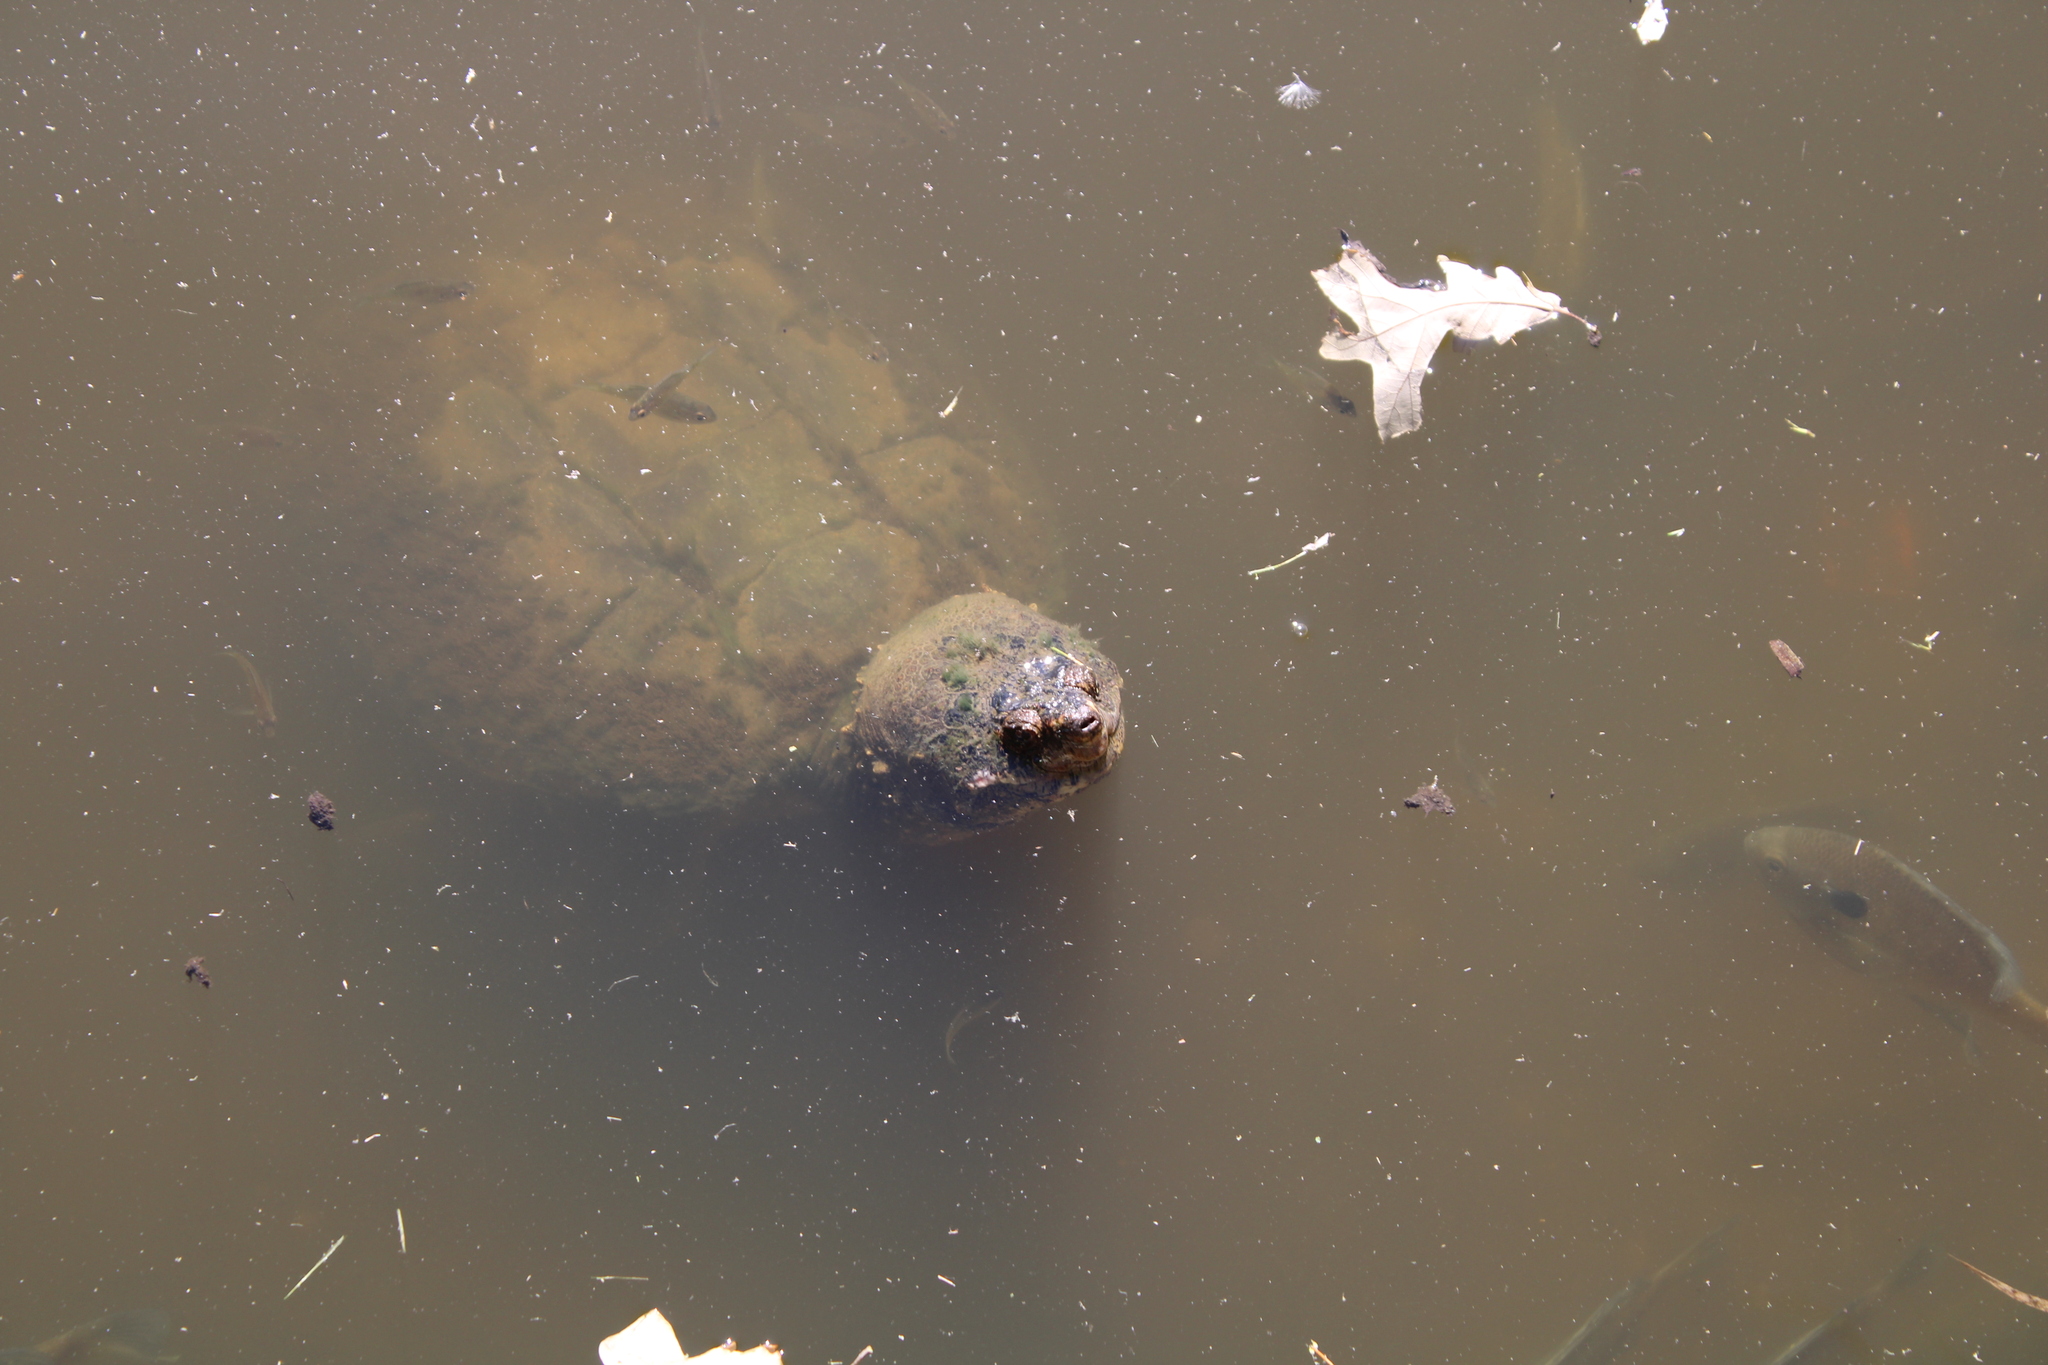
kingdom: Animalia
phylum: Chordata
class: Testudines
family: Chelydridae
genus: Chelydra
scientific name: Chelydra serpentina
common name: Common snapping turtle
